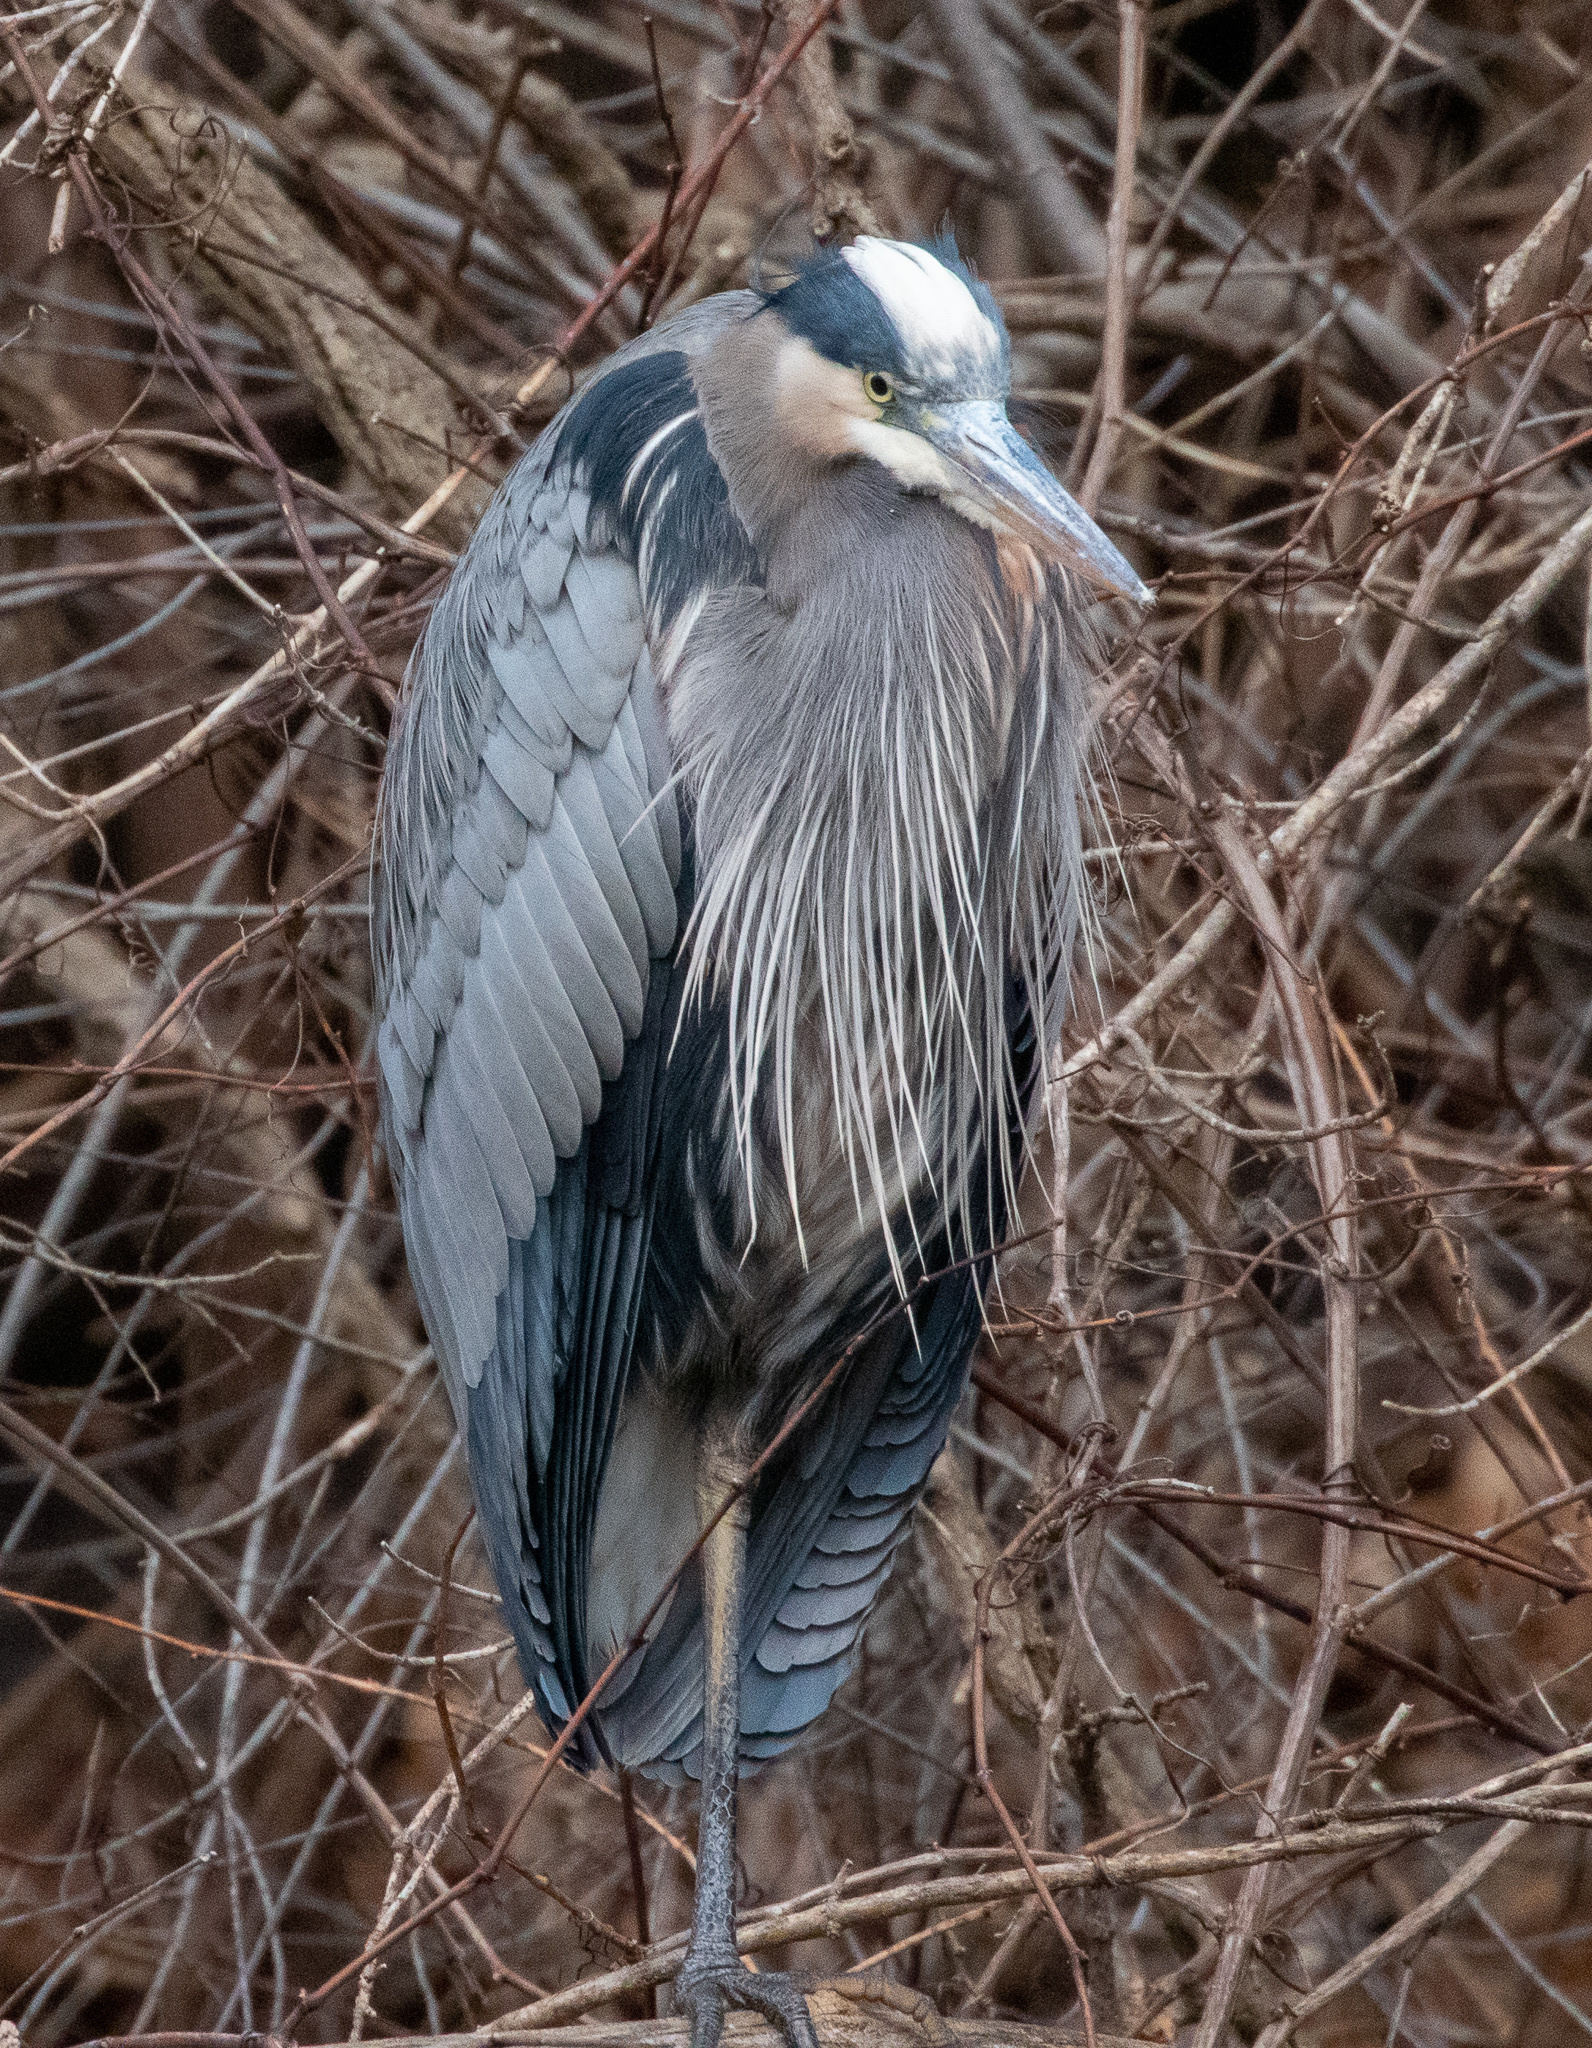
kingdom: Animalia
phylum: Chordata
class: Aves
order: Pelecaniformes
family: Ardeidae
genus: Ardea
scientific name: Ardea herodias
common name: Great blue heron
